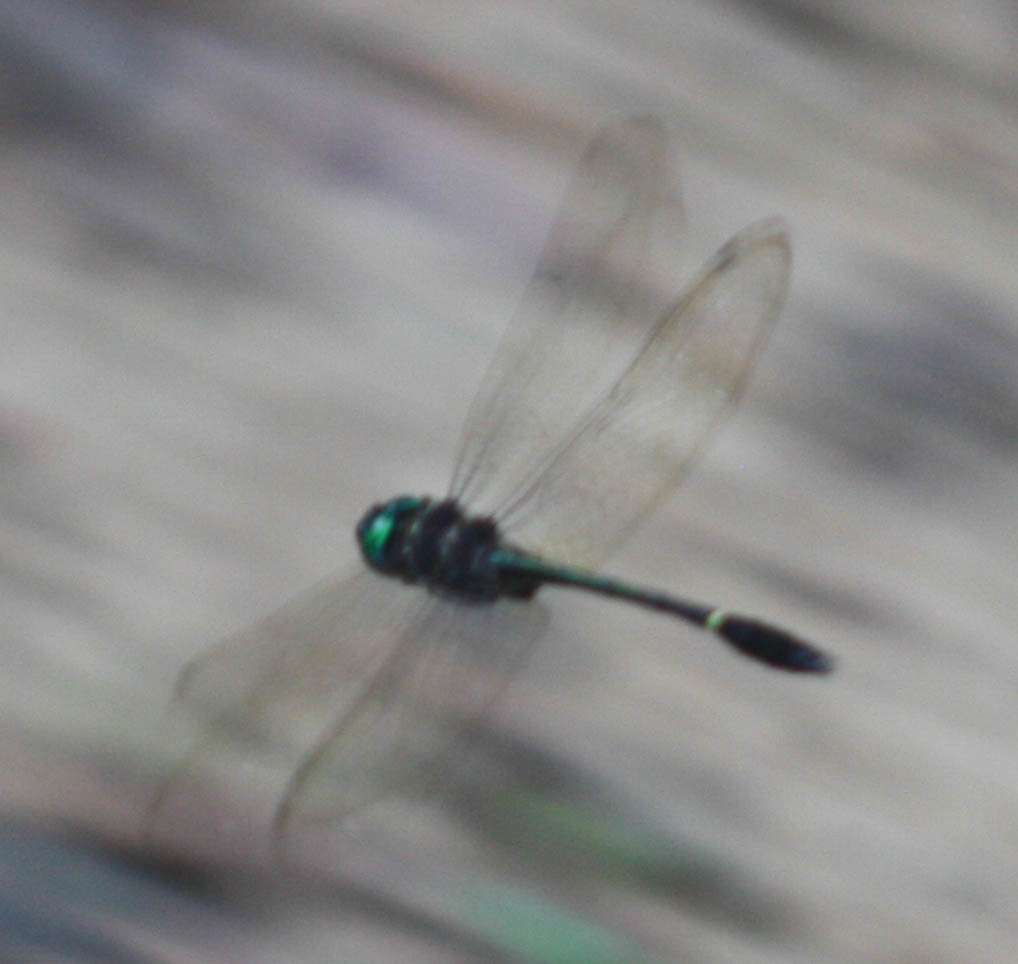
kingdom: Animalia
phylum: Arthropoda
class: Insecta
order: Odonata
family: Macromiidae
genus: Macromia
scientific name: Macromia cydippe
